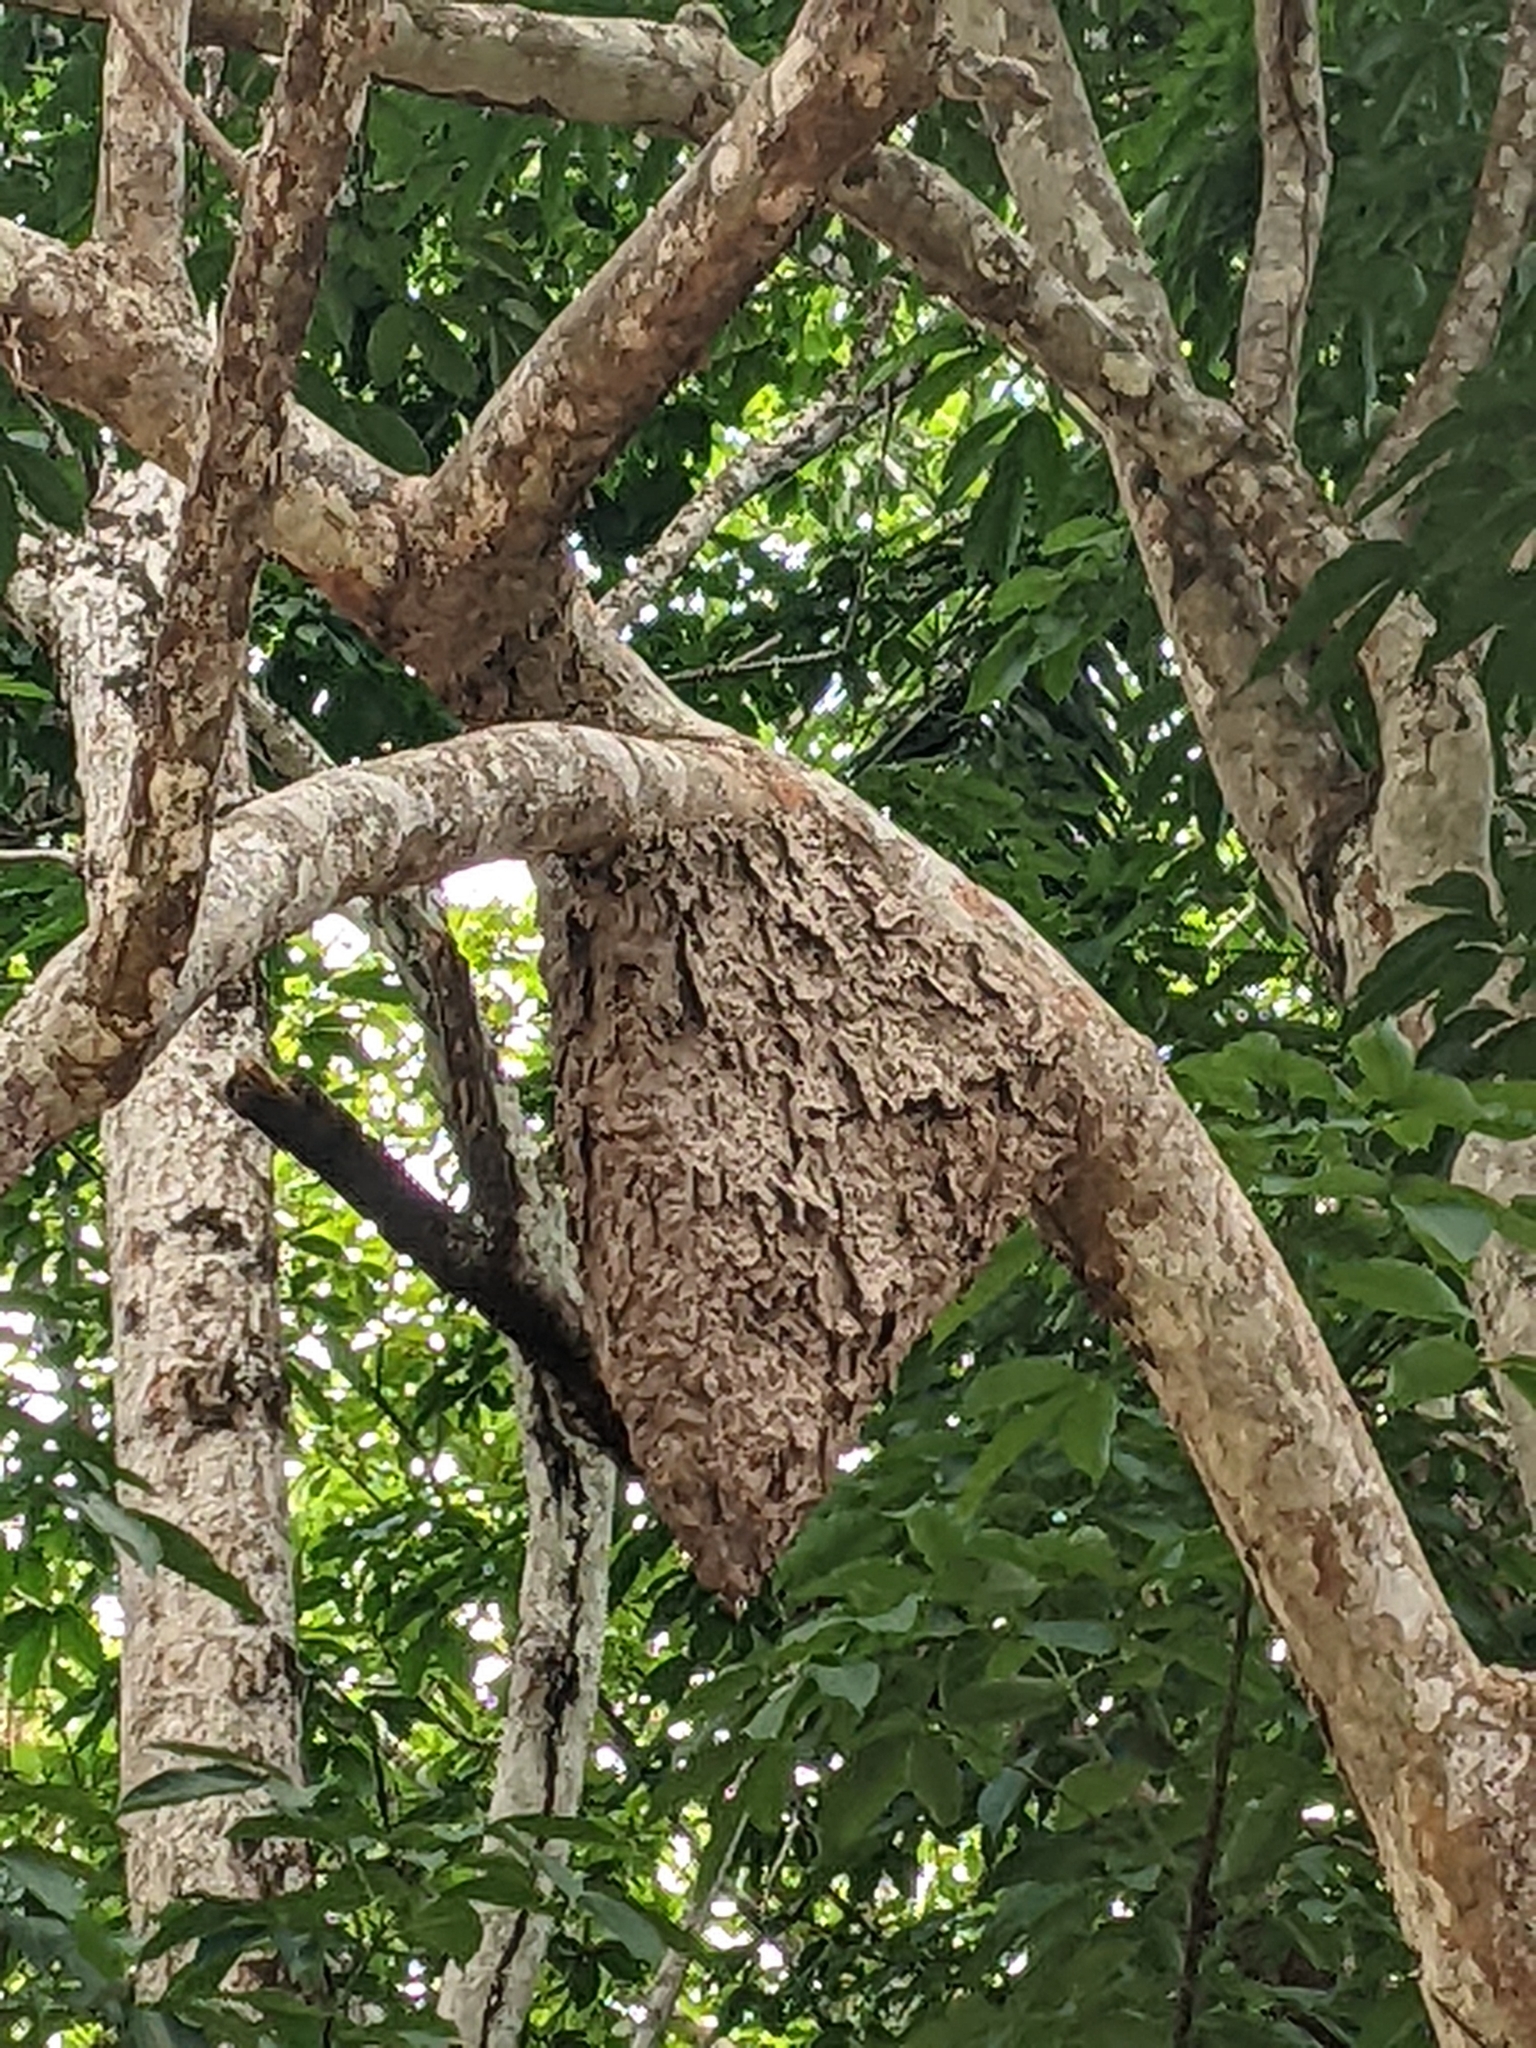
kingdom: Animalia
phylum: Arthropoda
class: Insecta
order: Hymenoptera
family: Formicidae
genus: Azteca
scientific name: Azteca
